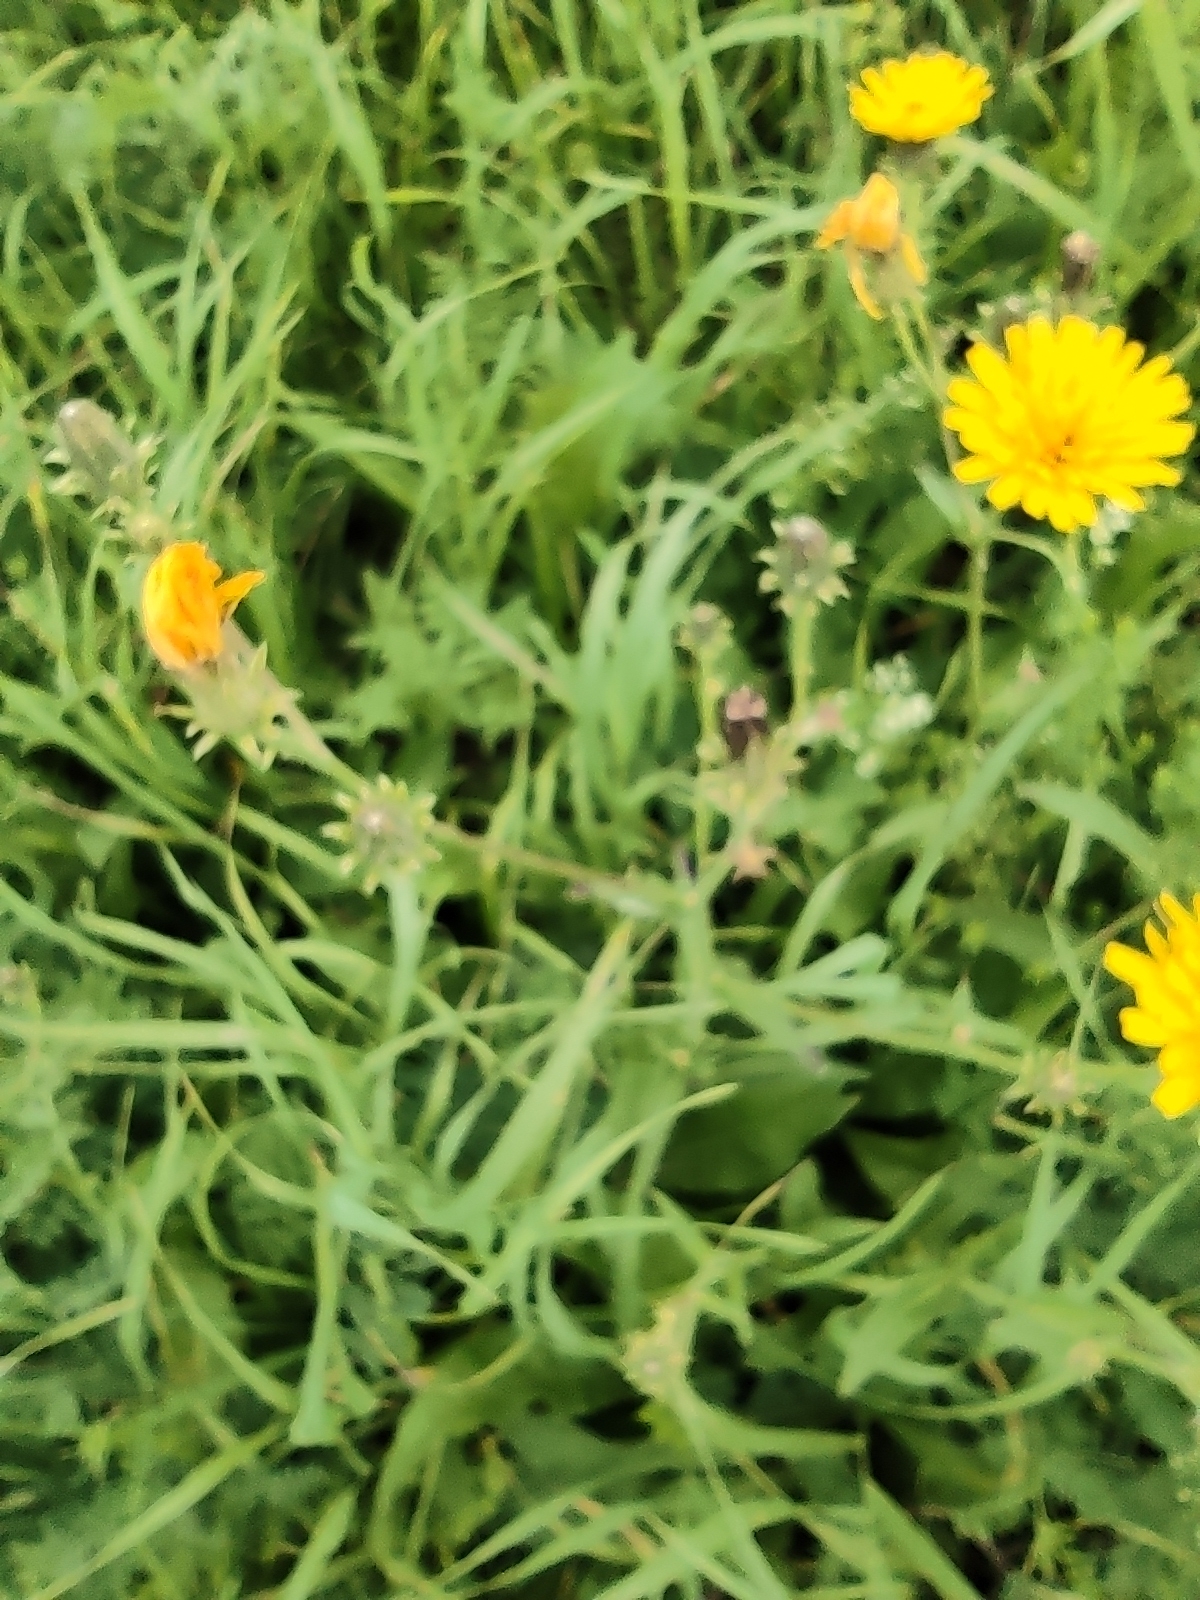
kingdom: Plantae
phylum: Tracheophyta
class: Magnoliopsida
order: Asterales
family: Asteraceae
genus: Picris
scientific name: Picris hieracioides
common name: Hawkweed oxtongue
